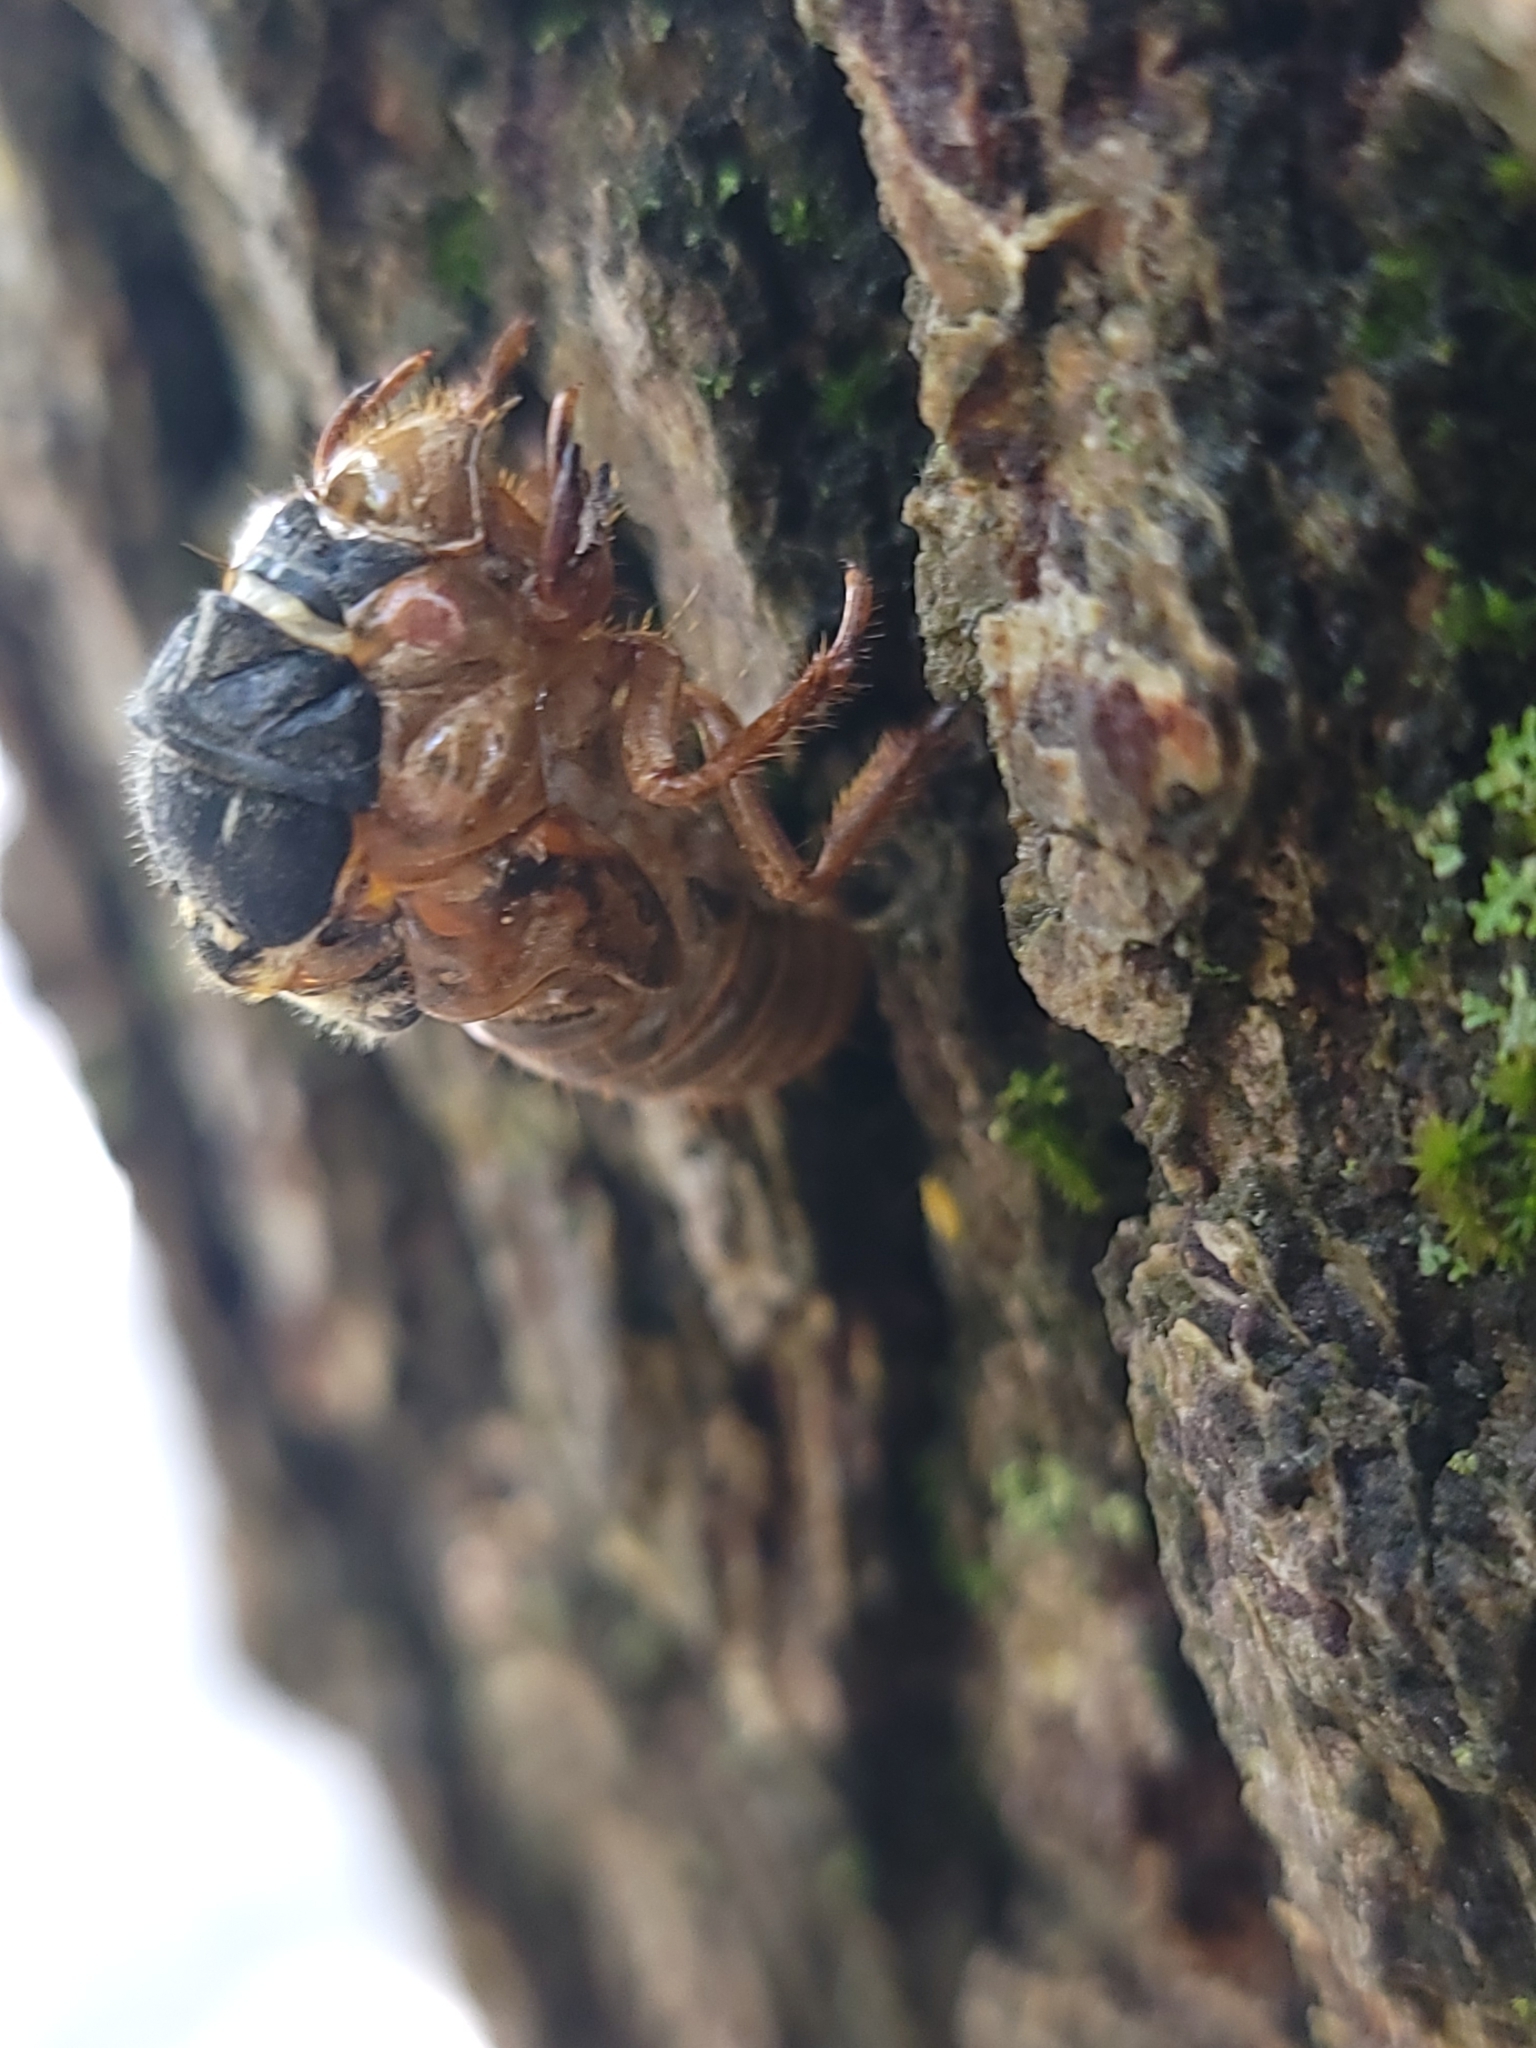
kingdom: Animalia
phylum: Arthropoda
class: Insecta
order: Hemiptera
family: Cicadidae
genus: Magicicada
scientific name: Magicicada
